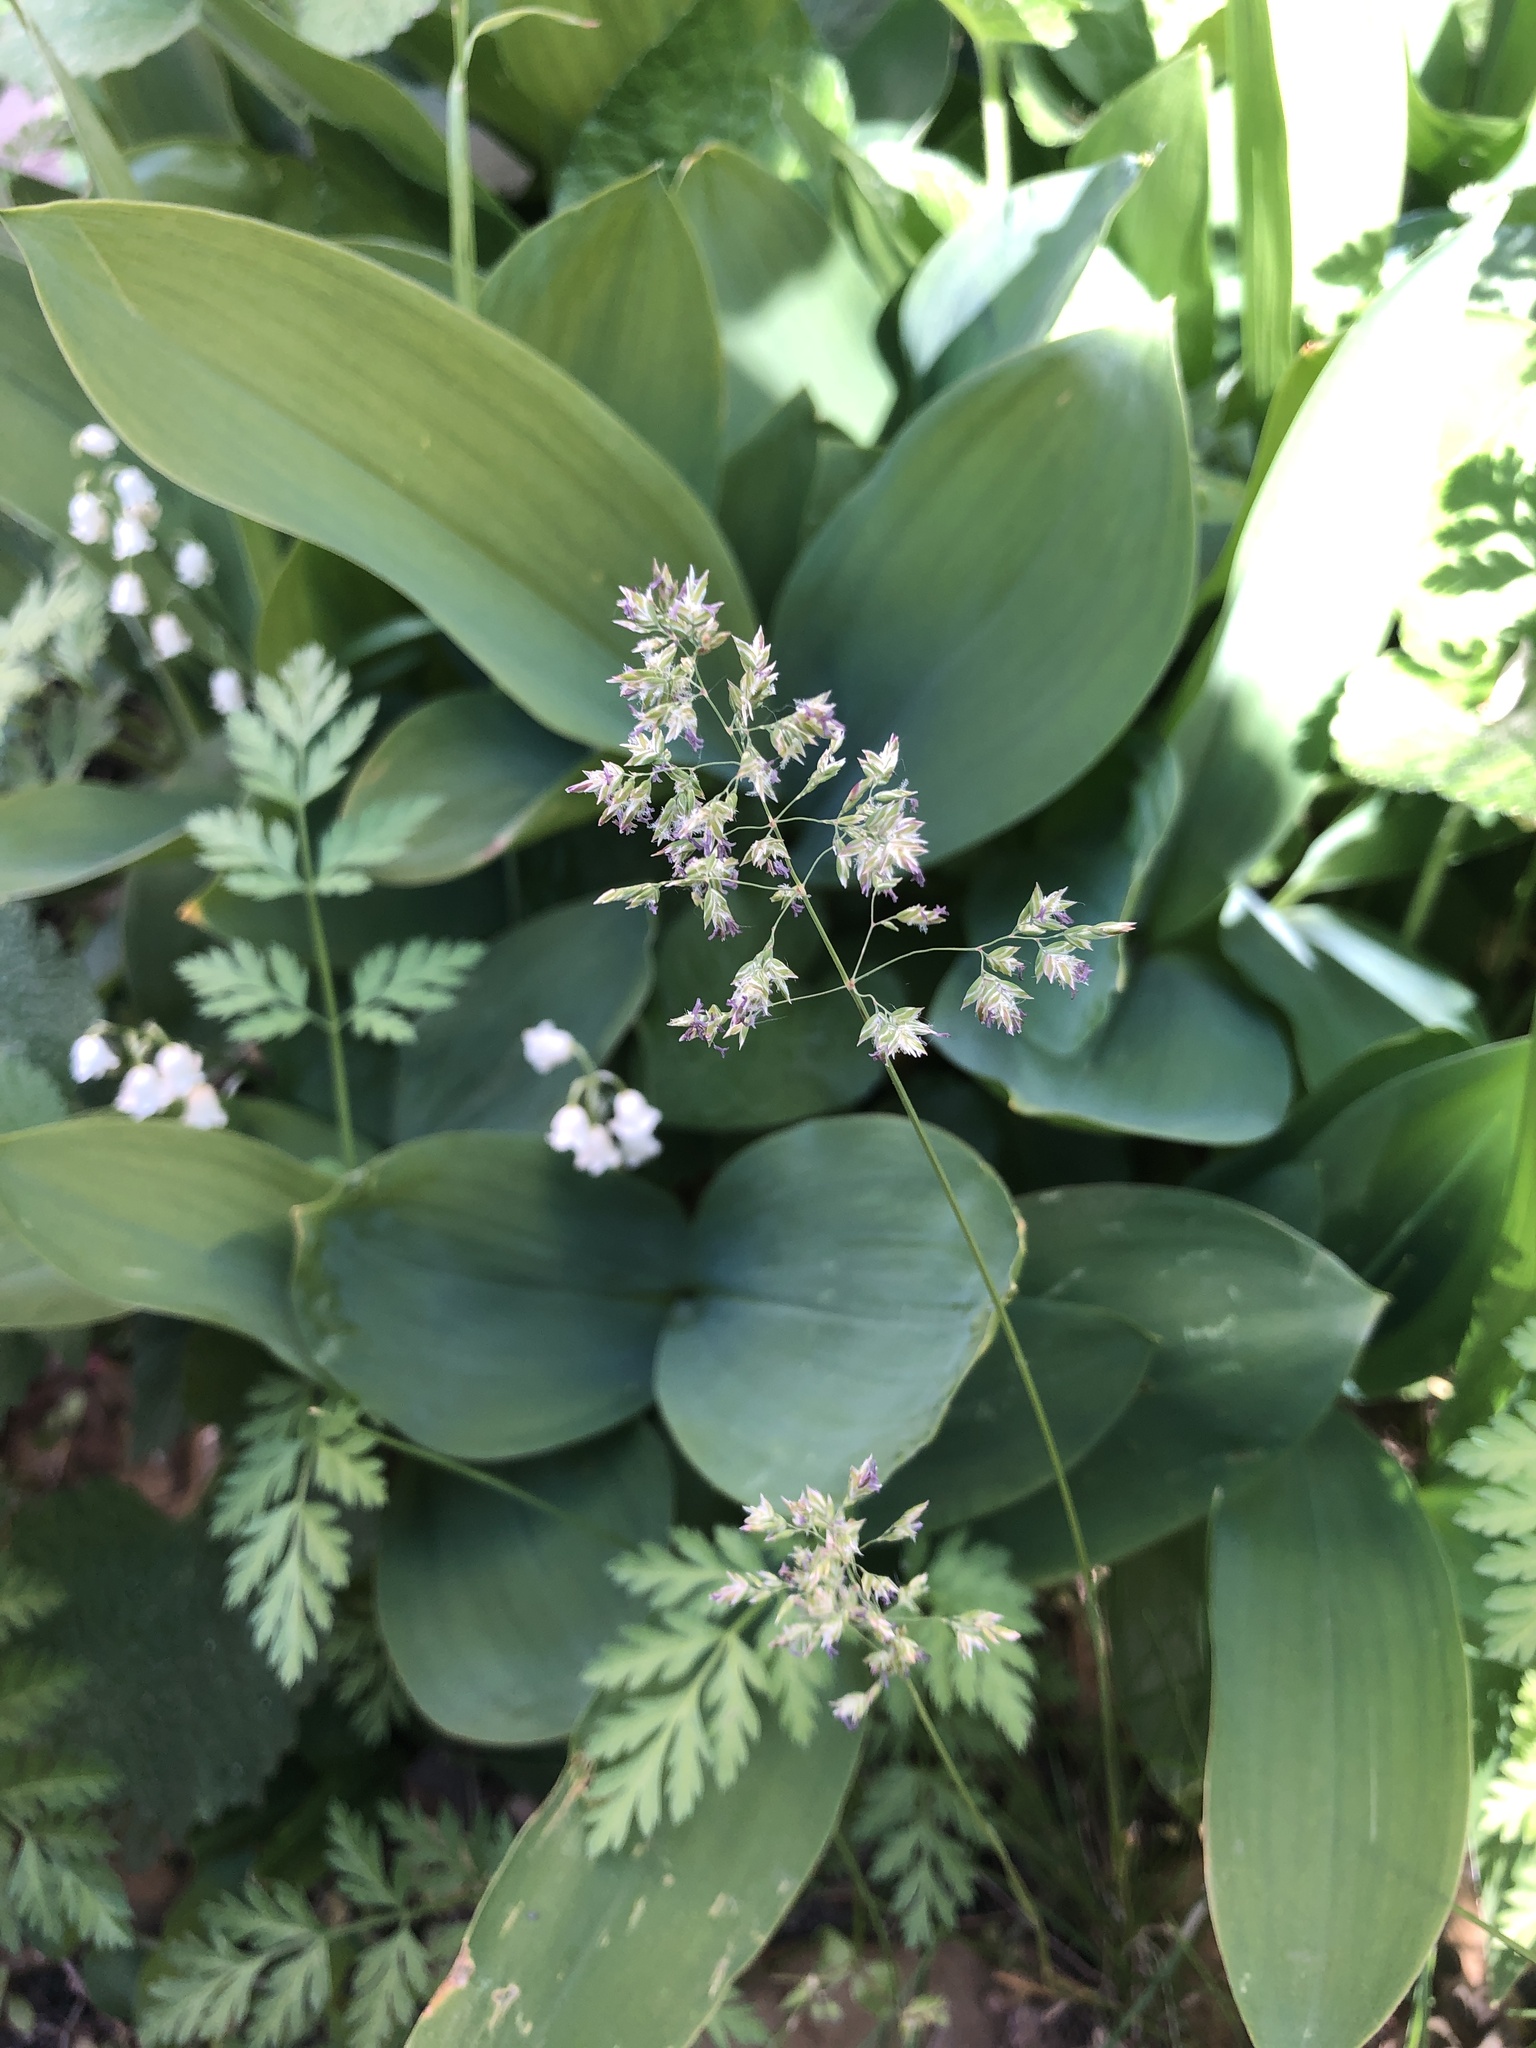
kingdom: Plantae
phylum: Tracheophyta
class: Liliopsida
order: Poales
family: Poaceae
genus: Poa
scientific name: Poa pratensis
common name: Kentucky bluegrass
